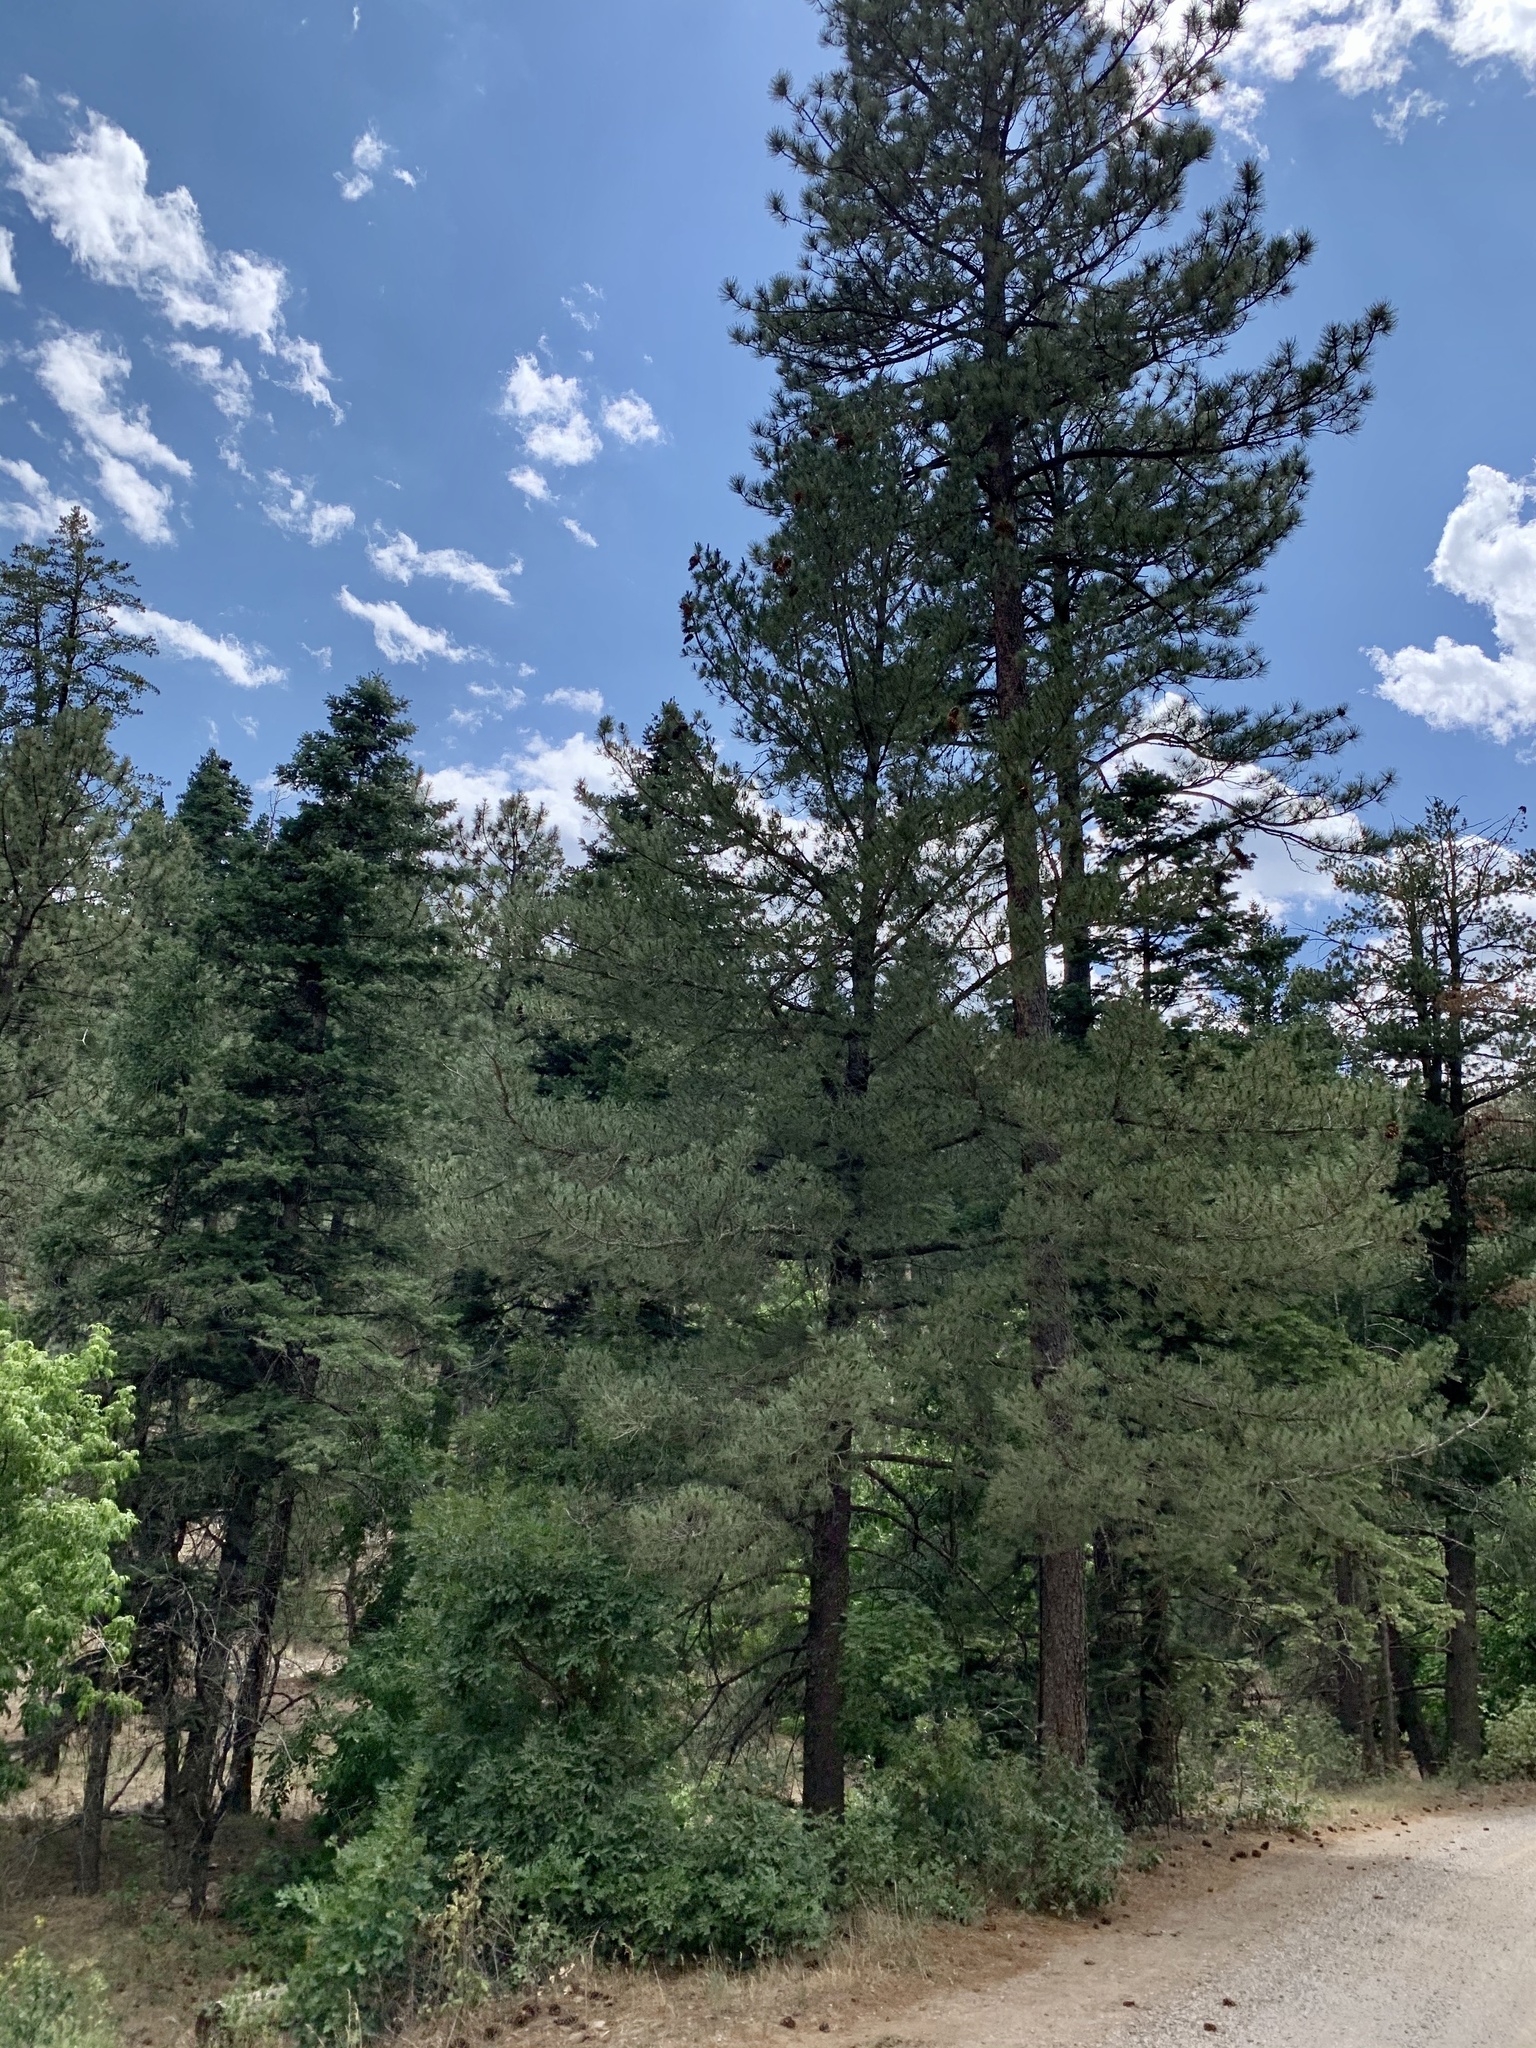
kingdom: Plantae
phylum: Tracheophyta
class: Pinopsida
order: Pinales
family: Pinaceae
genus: Pinus
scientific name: Pinus ponderosa
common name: Western yellow-pine
